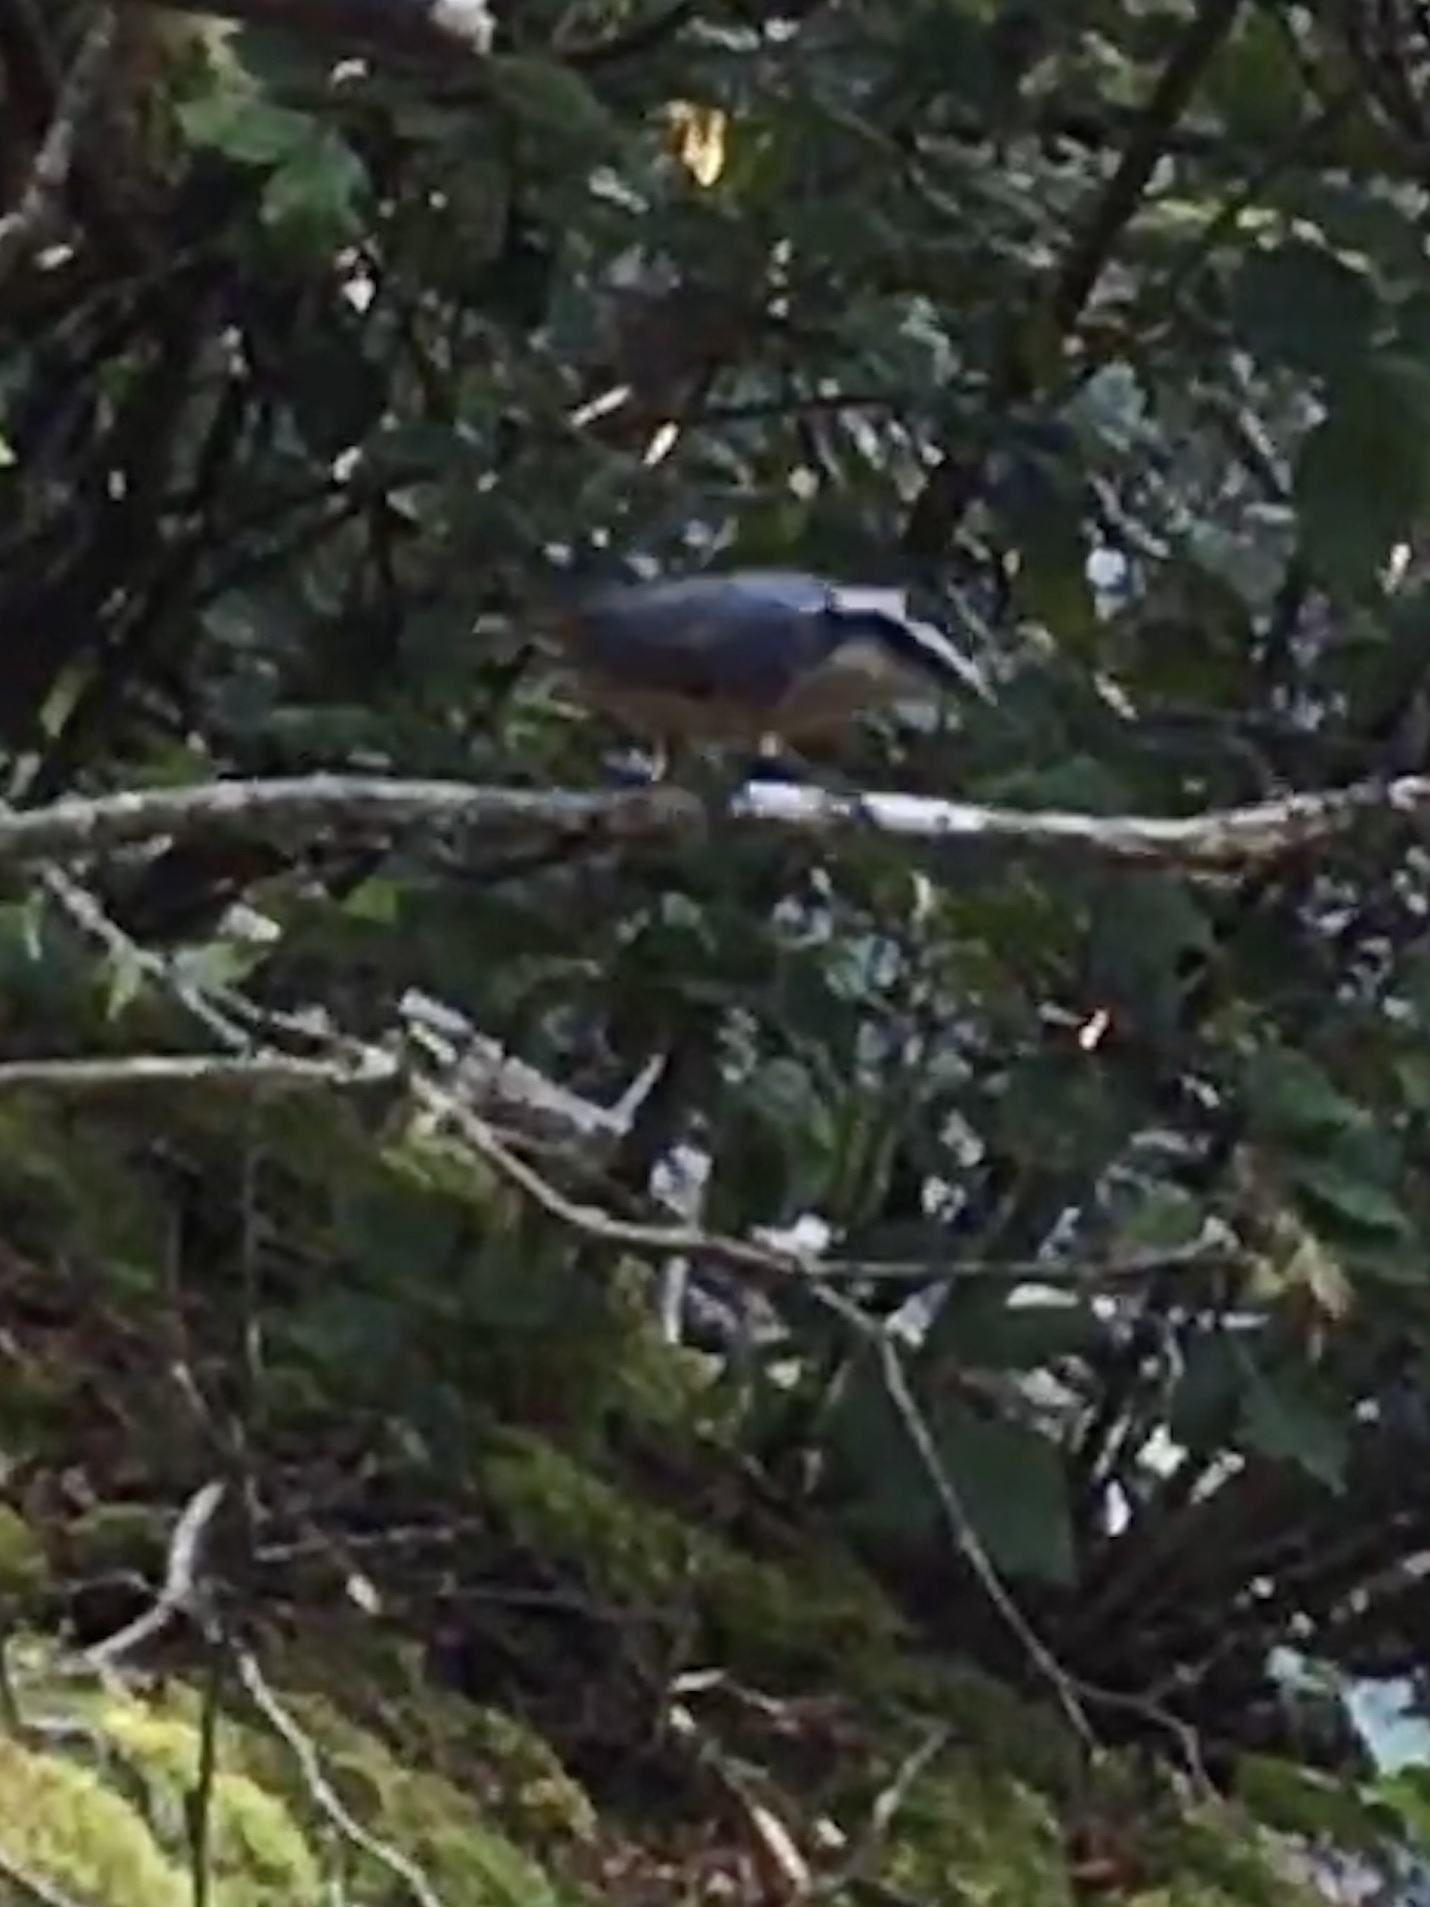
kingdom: Animalia
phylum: Chordata
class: Aves
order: Passeriformes
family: Sittidae
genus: Sitta
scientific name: Sitta canadensis
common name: Red-breasted nuthatch
